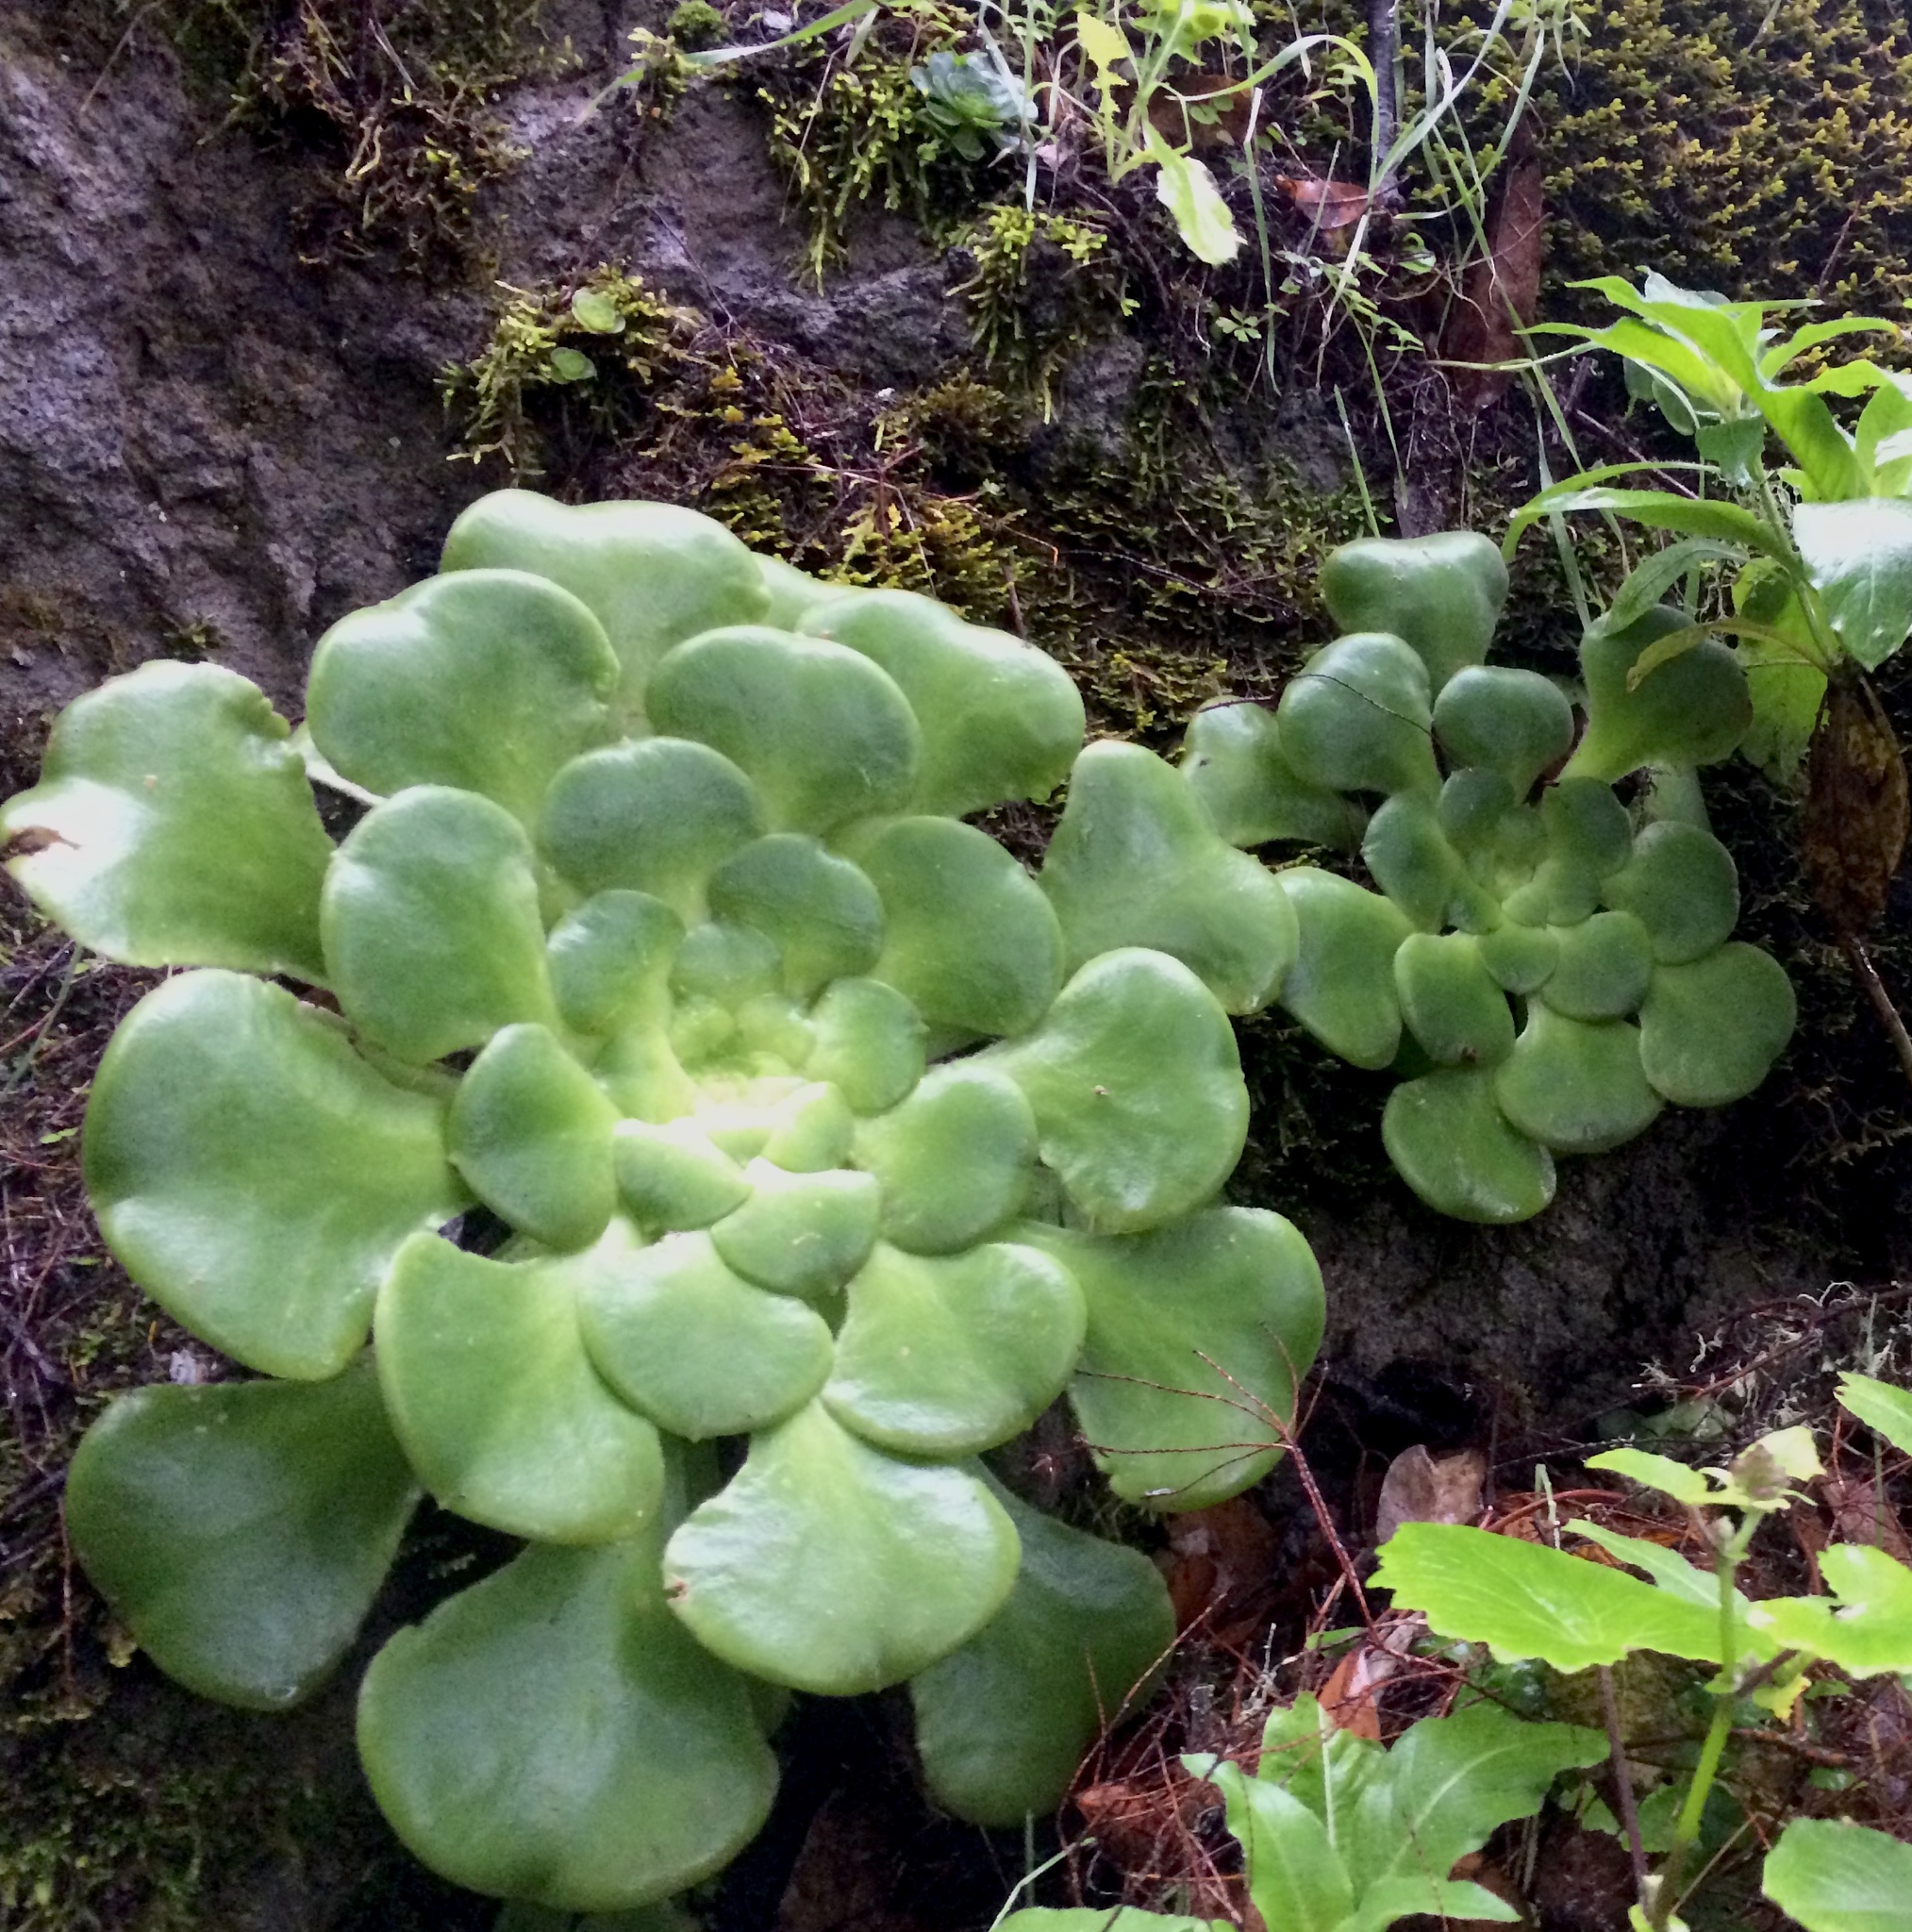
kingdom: Plantae
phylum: Tracheophyta
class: Magnoliopsida
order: Saxifragales
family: Crassulaceae
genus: Aeonium
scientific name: Aeonium canariense
